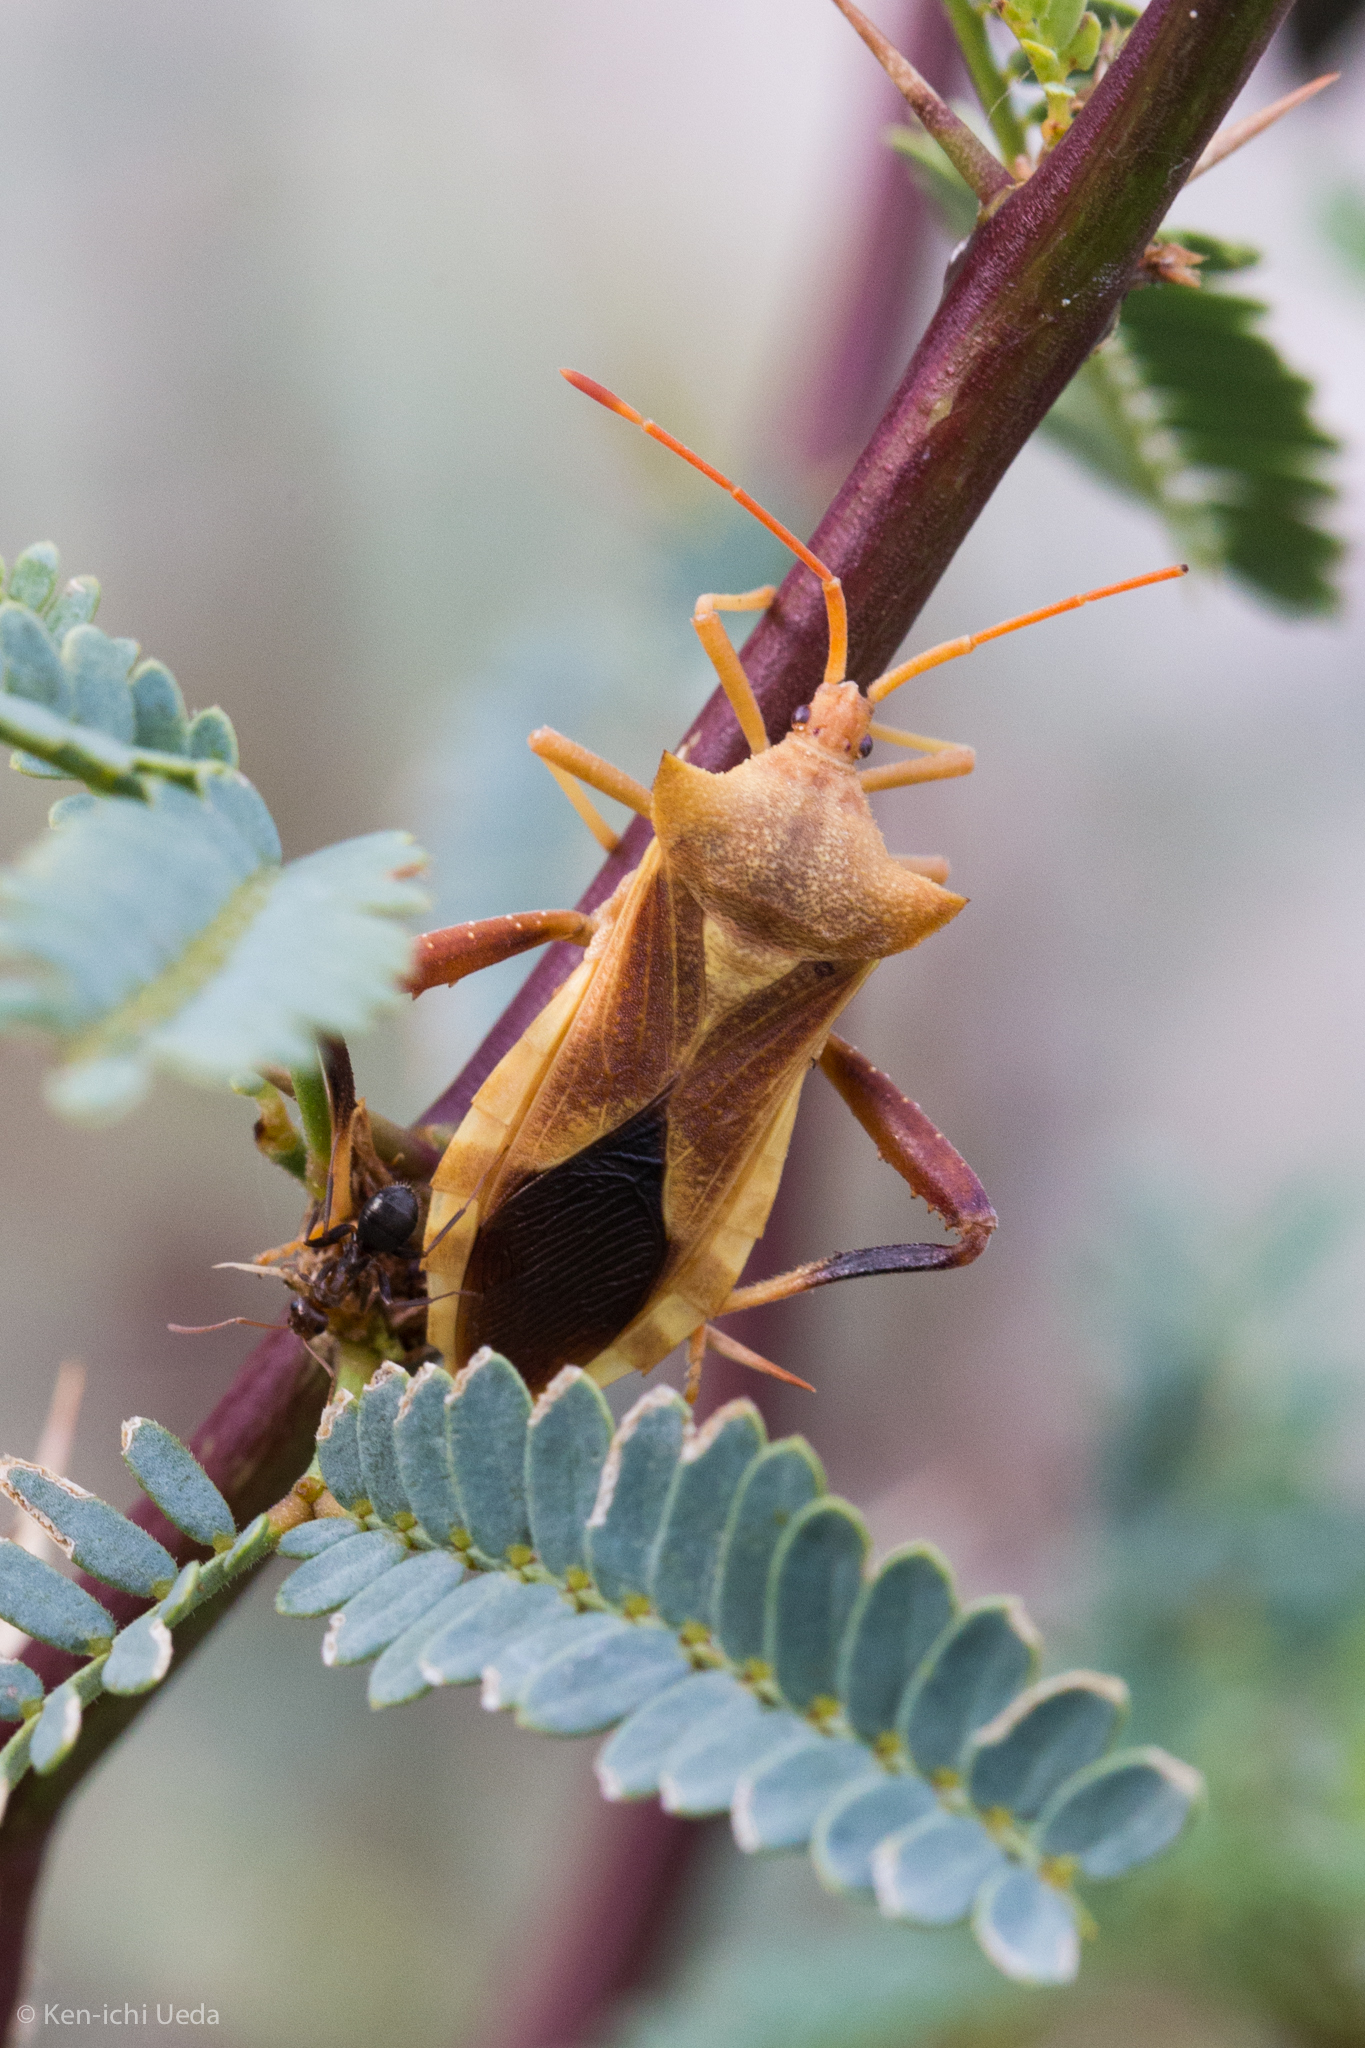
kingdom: Animalia
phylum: Arthropoda
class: Insecta
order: Hemiptera
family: Coreidae
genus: Mozena
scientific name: Mozena arizonensis
